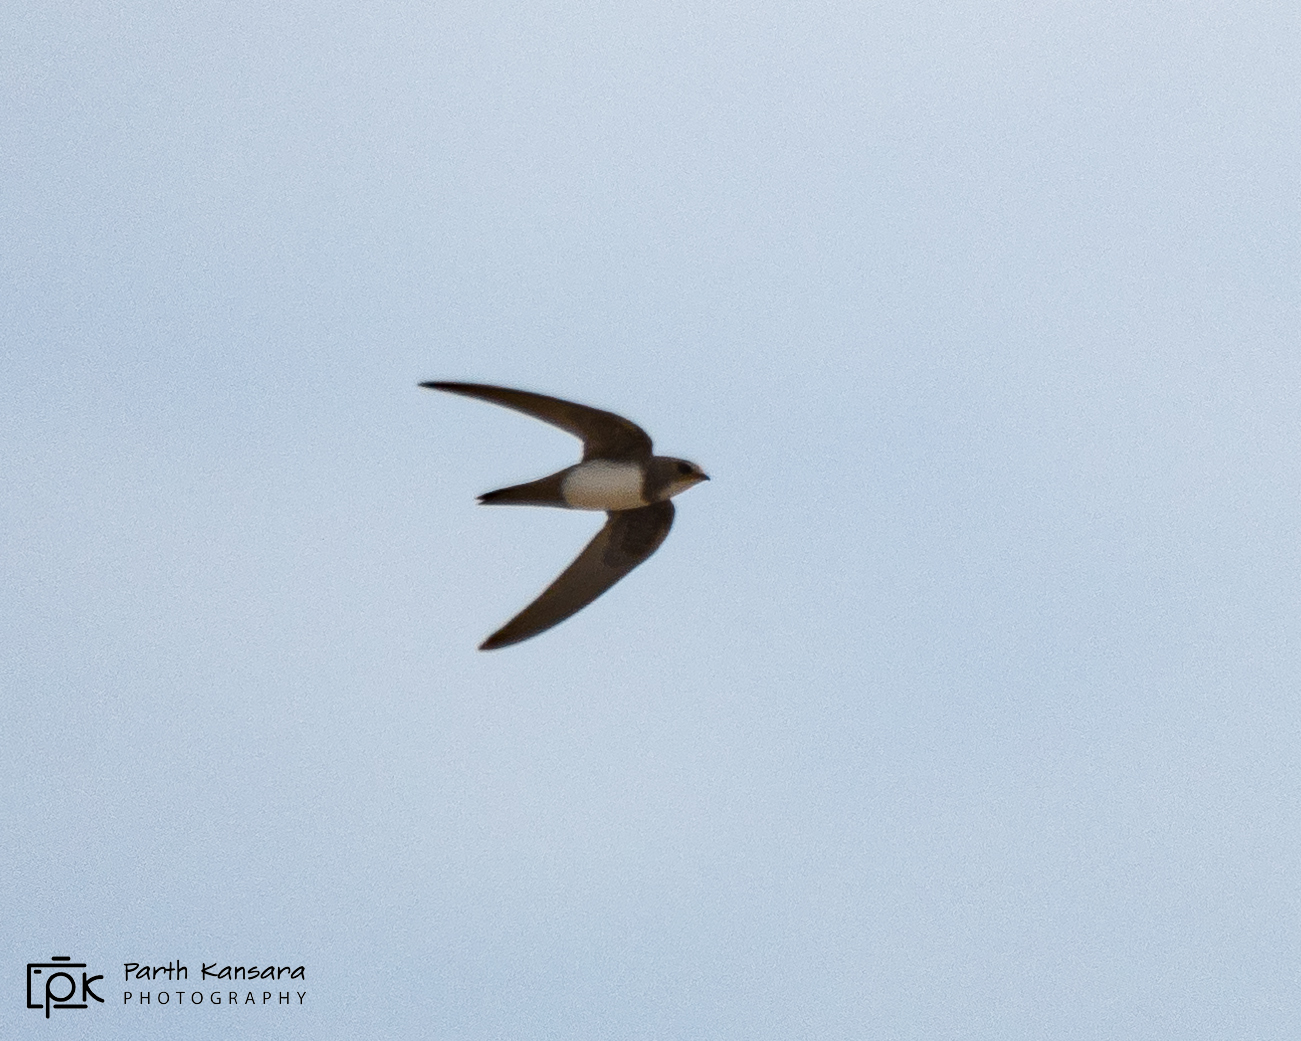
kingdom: Animalia
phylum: Chordata
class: Aves
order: Apodiformes
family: Apodidae
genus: Tachymarptis
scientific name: Tachymarptis melba
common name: Alpine swift
